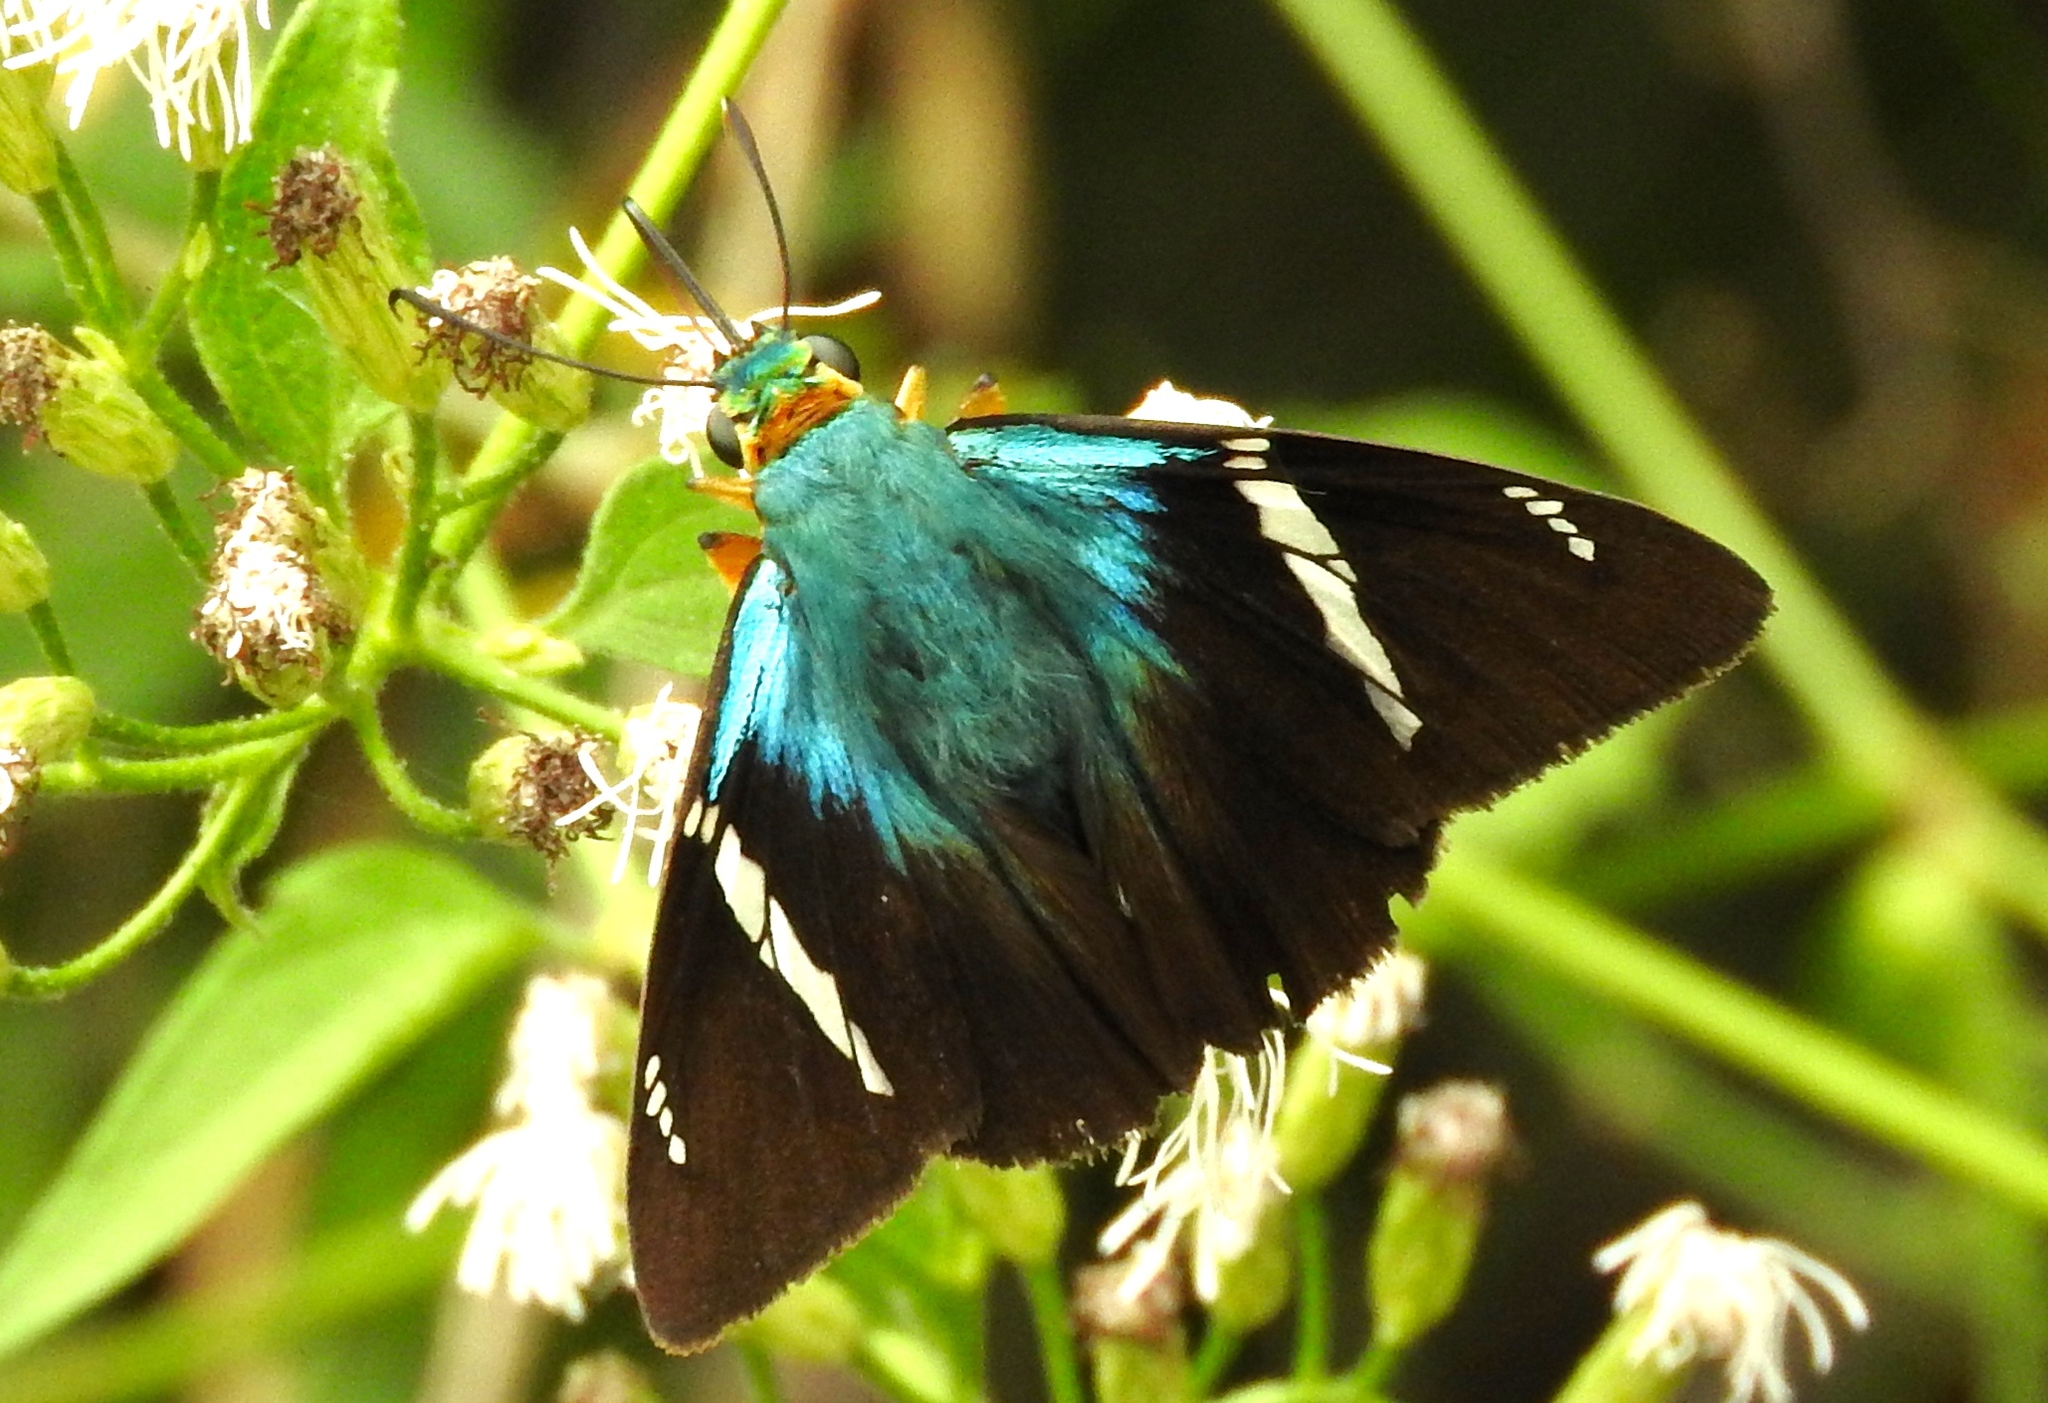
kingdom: Animalia
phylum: Arthropoda
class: Insecta
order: Lepidoptera
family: Hesperiidae
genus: Astraptes
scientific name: Astraptes fulgerator
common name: Two-barred flasher
